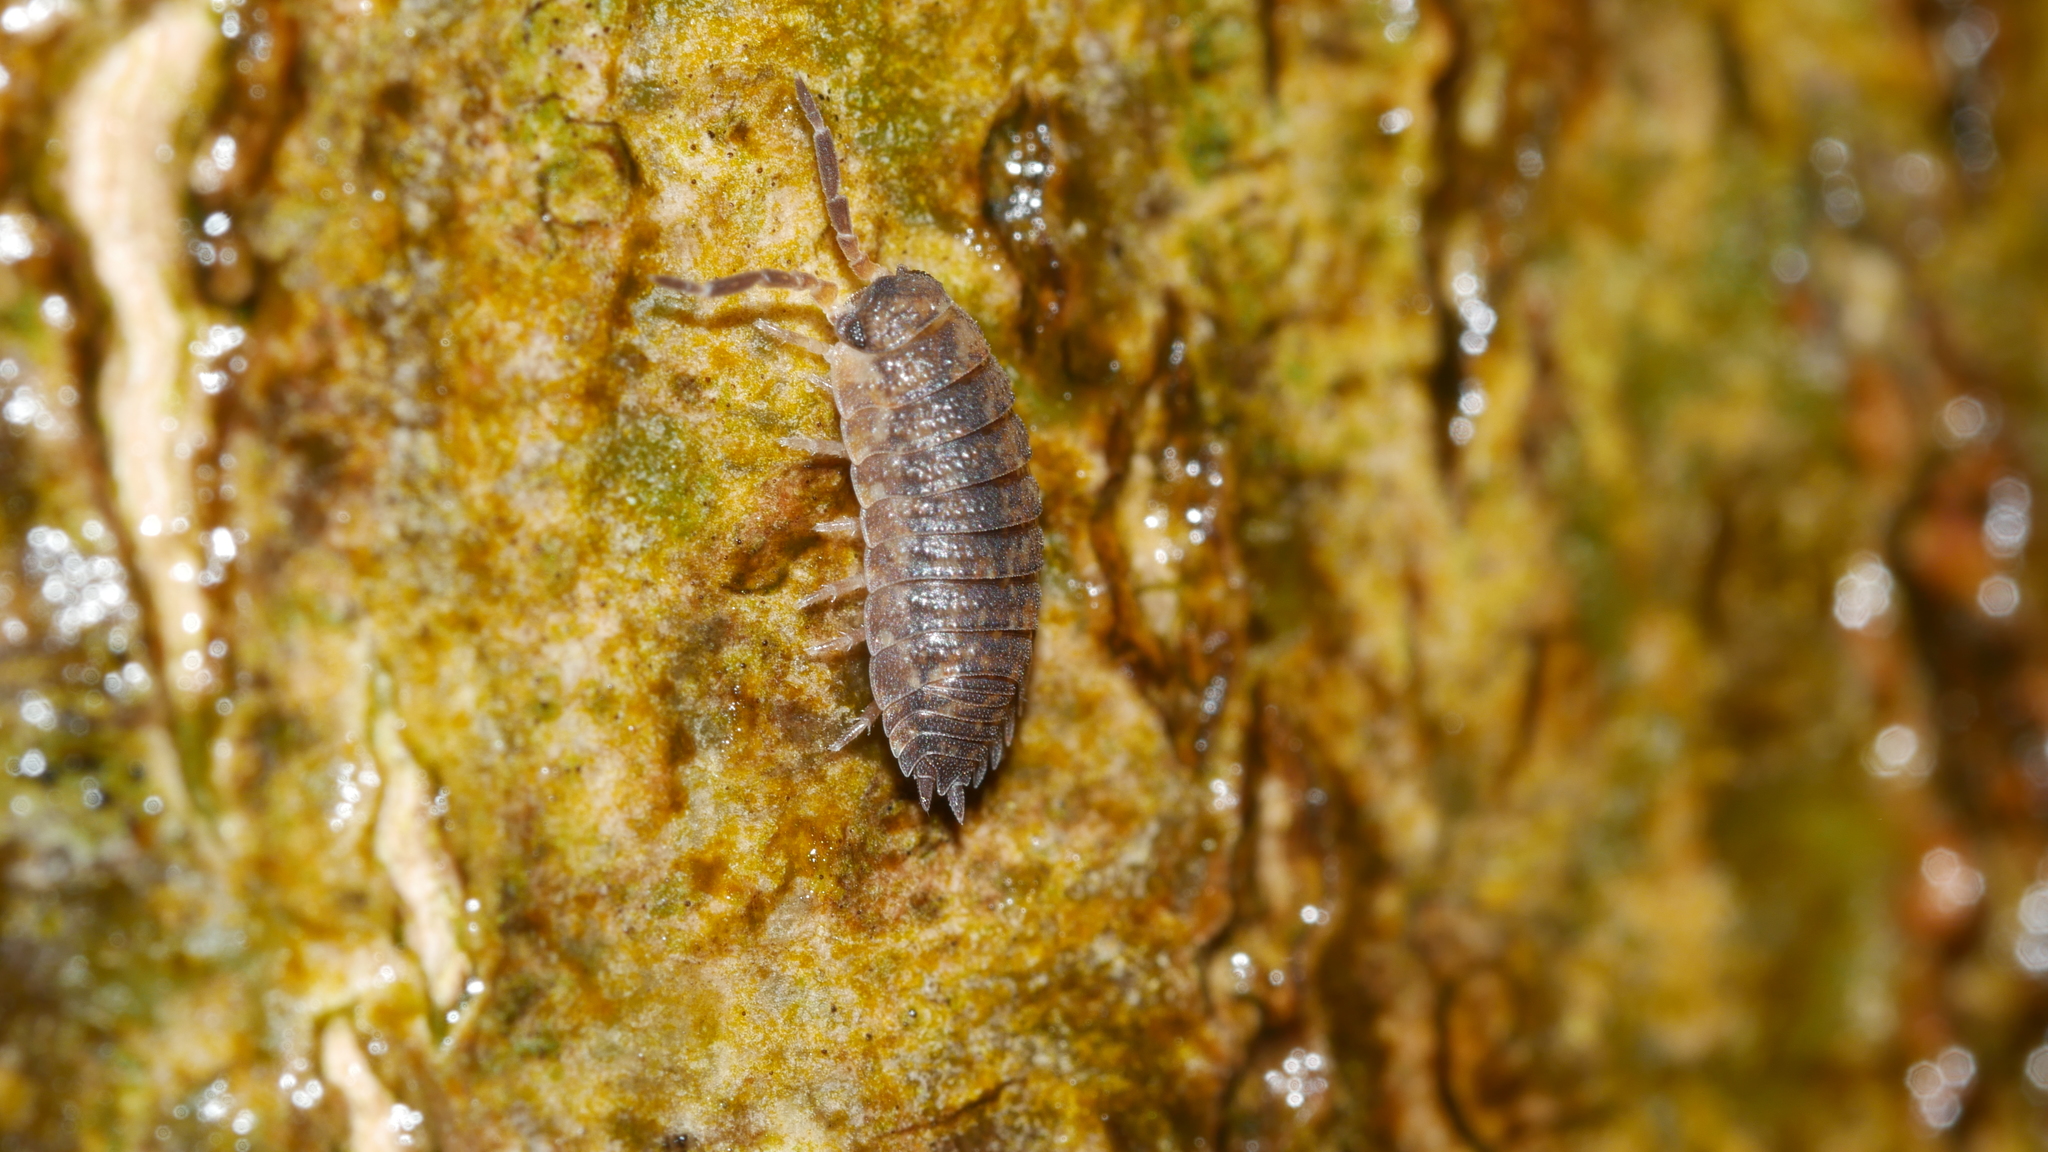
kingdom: Animalia
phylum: Arthropoda
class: Malacostraca
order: Isopoda
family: Porcellionidae
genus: Porcellio
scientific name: Porcellio scaber
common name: Common rough woodlouse
